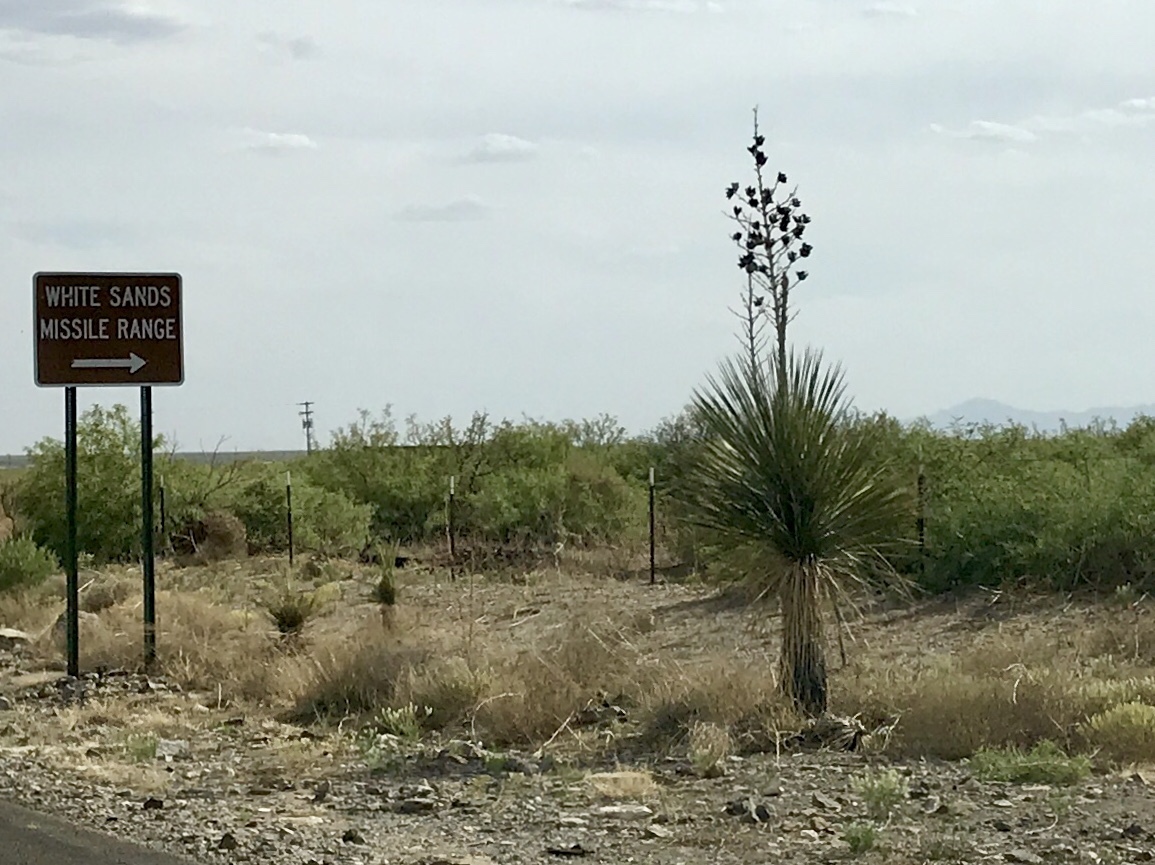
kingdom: Plantae
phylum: Tracheophyta
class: Liliopsida
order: Asparagales
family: Asparagaceae
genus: Yucca
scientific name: Yucca elata
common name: Palmella
